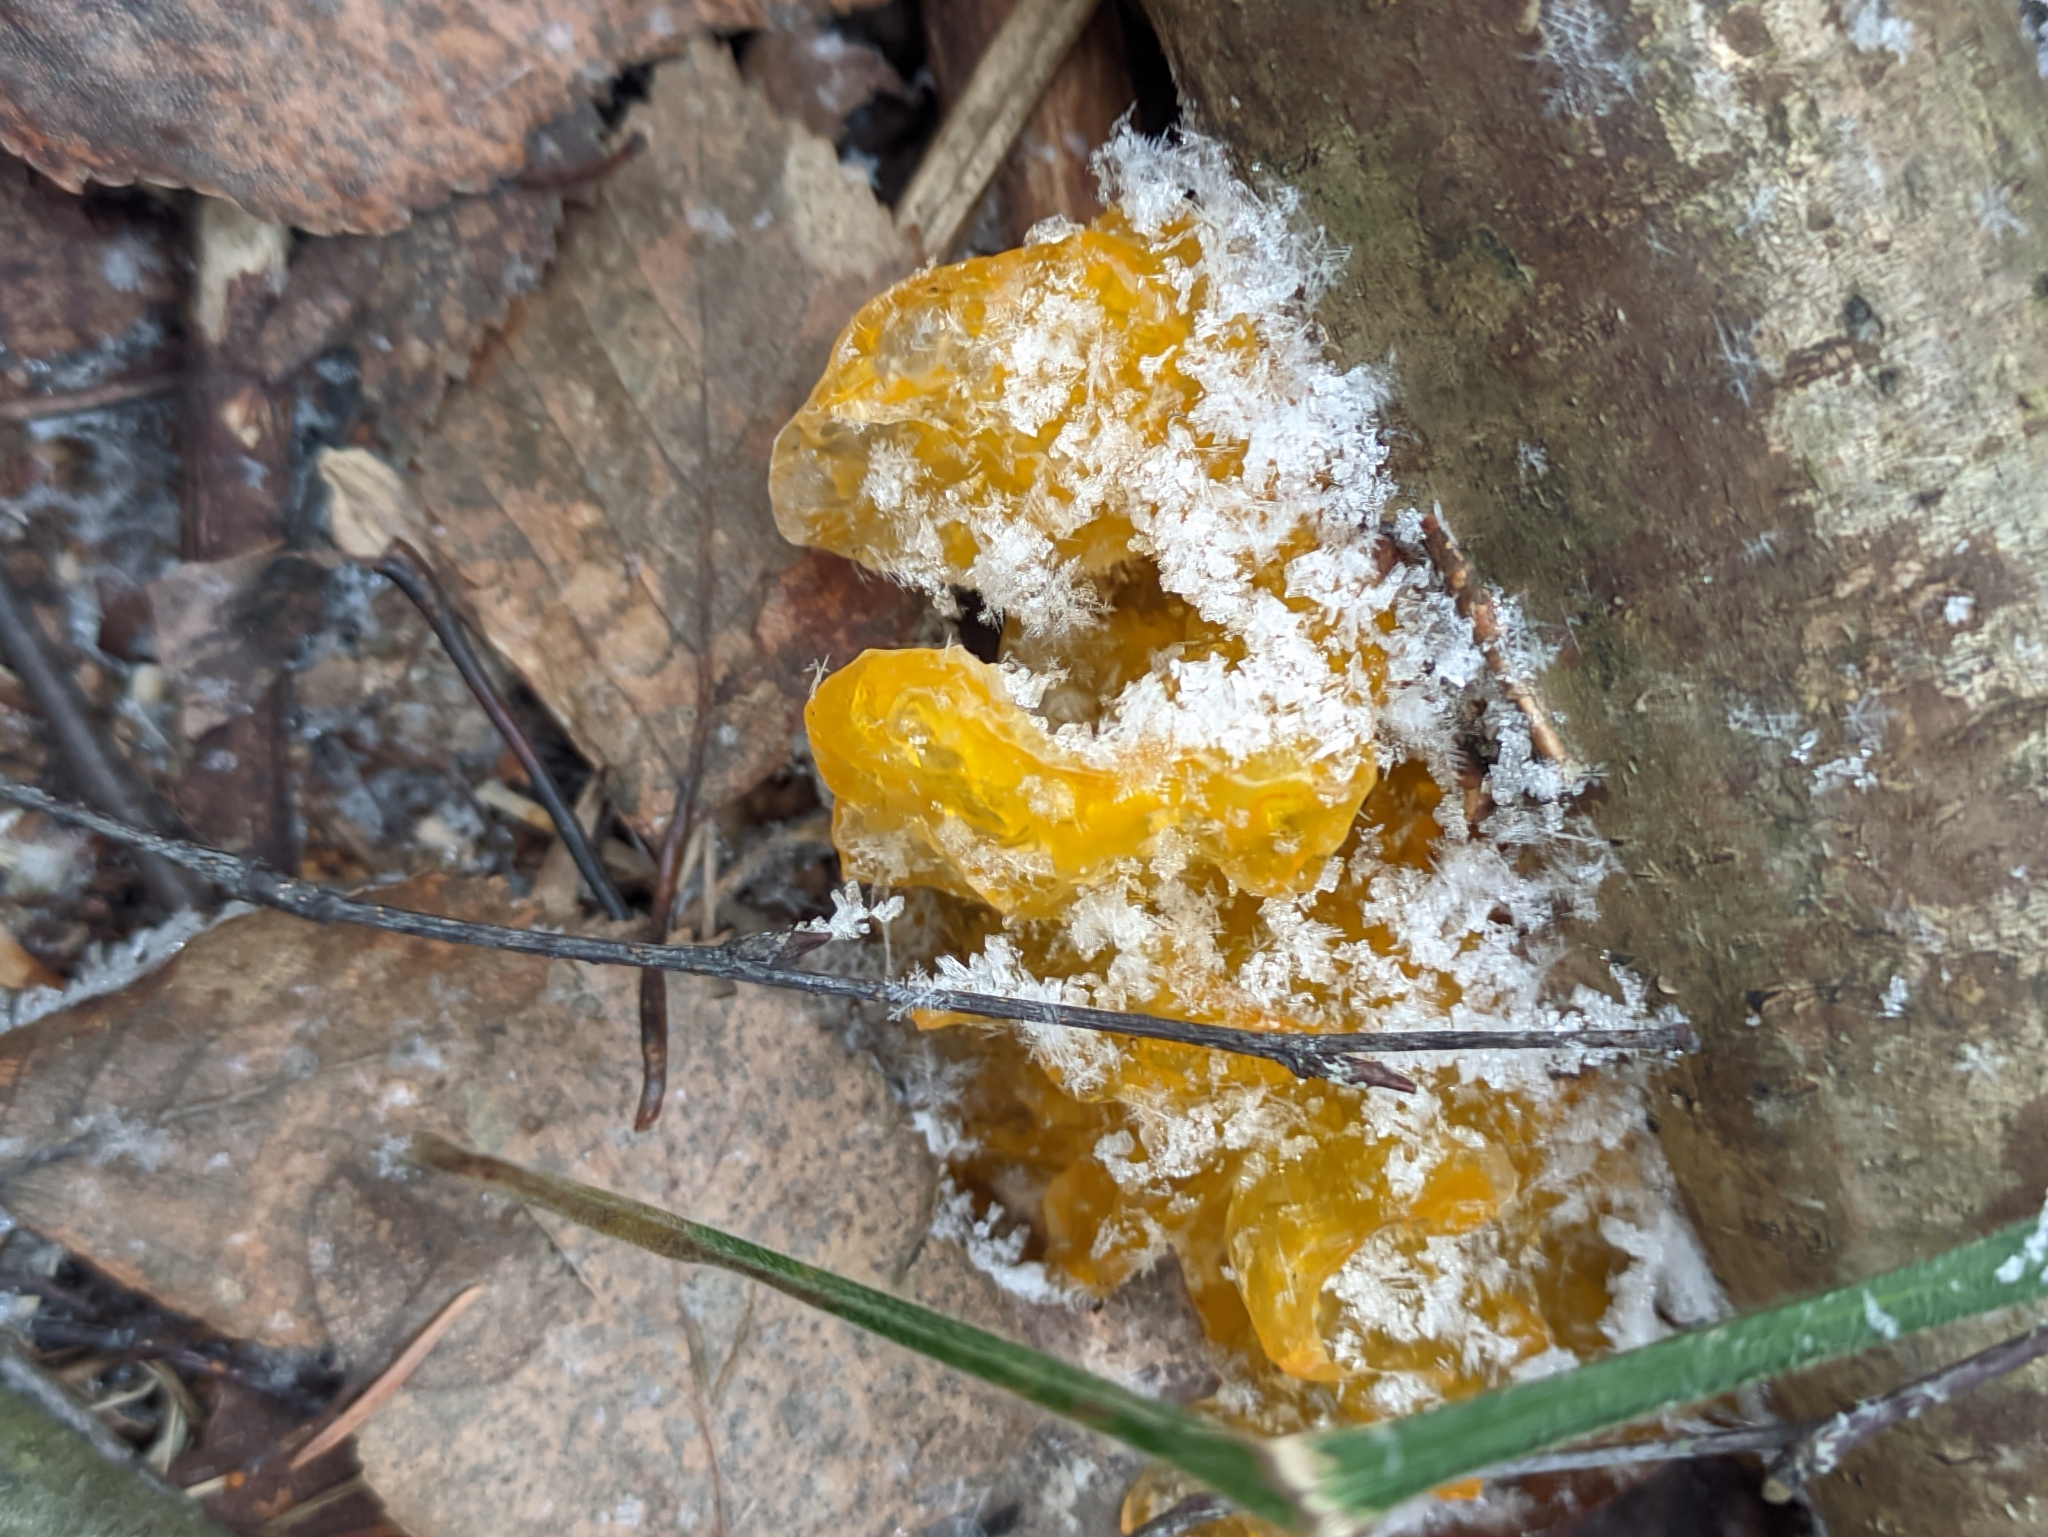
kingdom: Fungi
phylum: Basidiomycota
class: Tremellomycetes
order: Tremellales
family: Tremellaceae
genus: Tremella
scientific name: Tremella mesenterica
